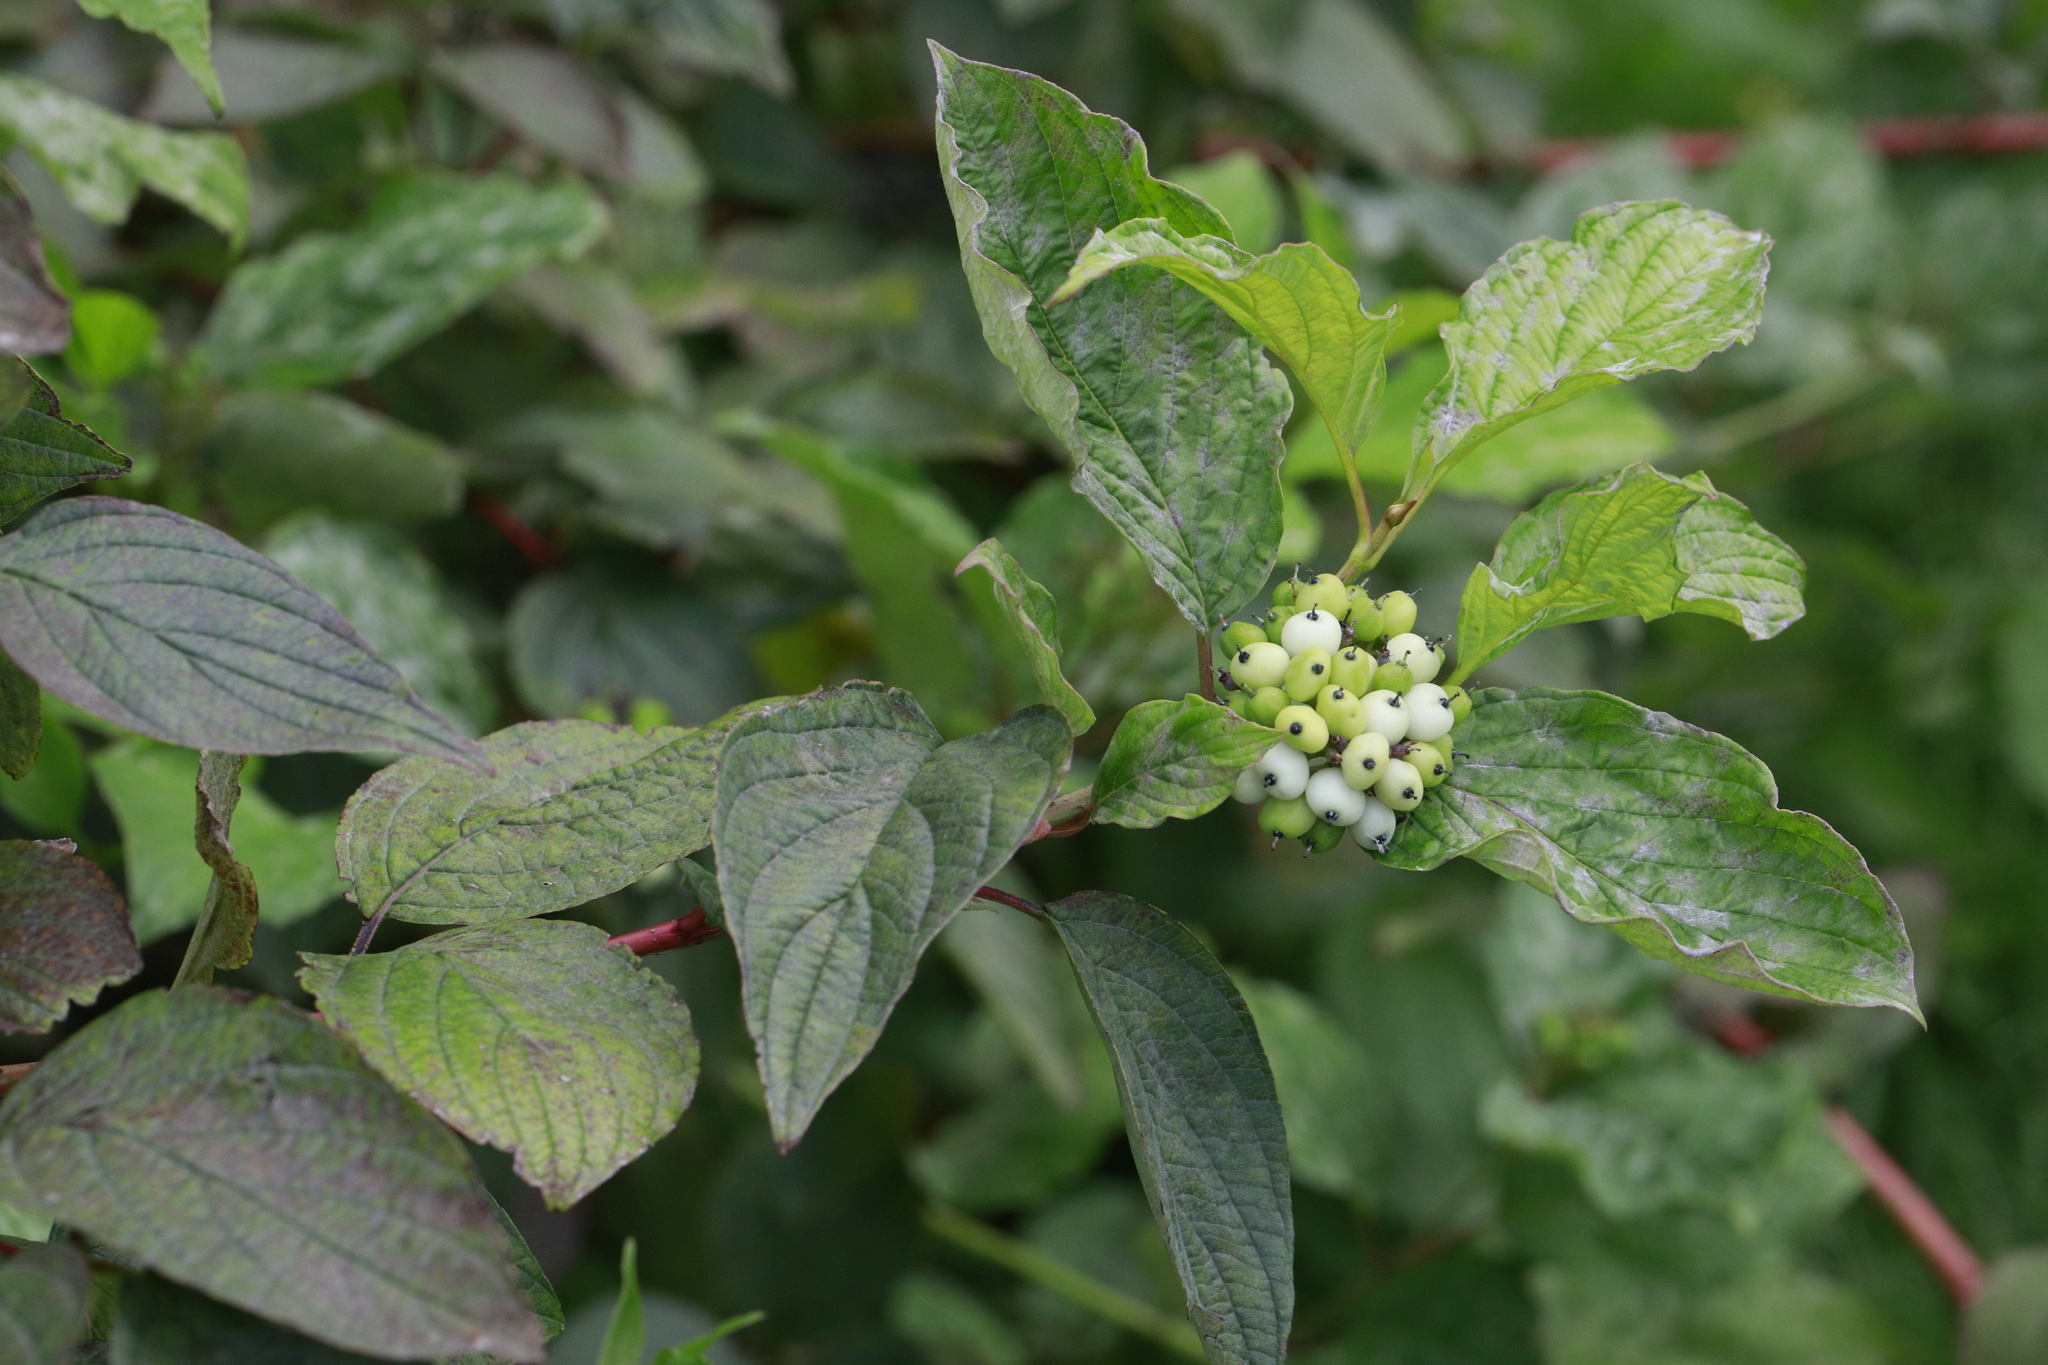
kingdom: Plantae
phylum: Tracheophyta
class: Magnoliopsida
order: Cornales
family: Cornaceae
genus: Cornus
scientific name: Cornus sanguinea
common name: Dogwood
